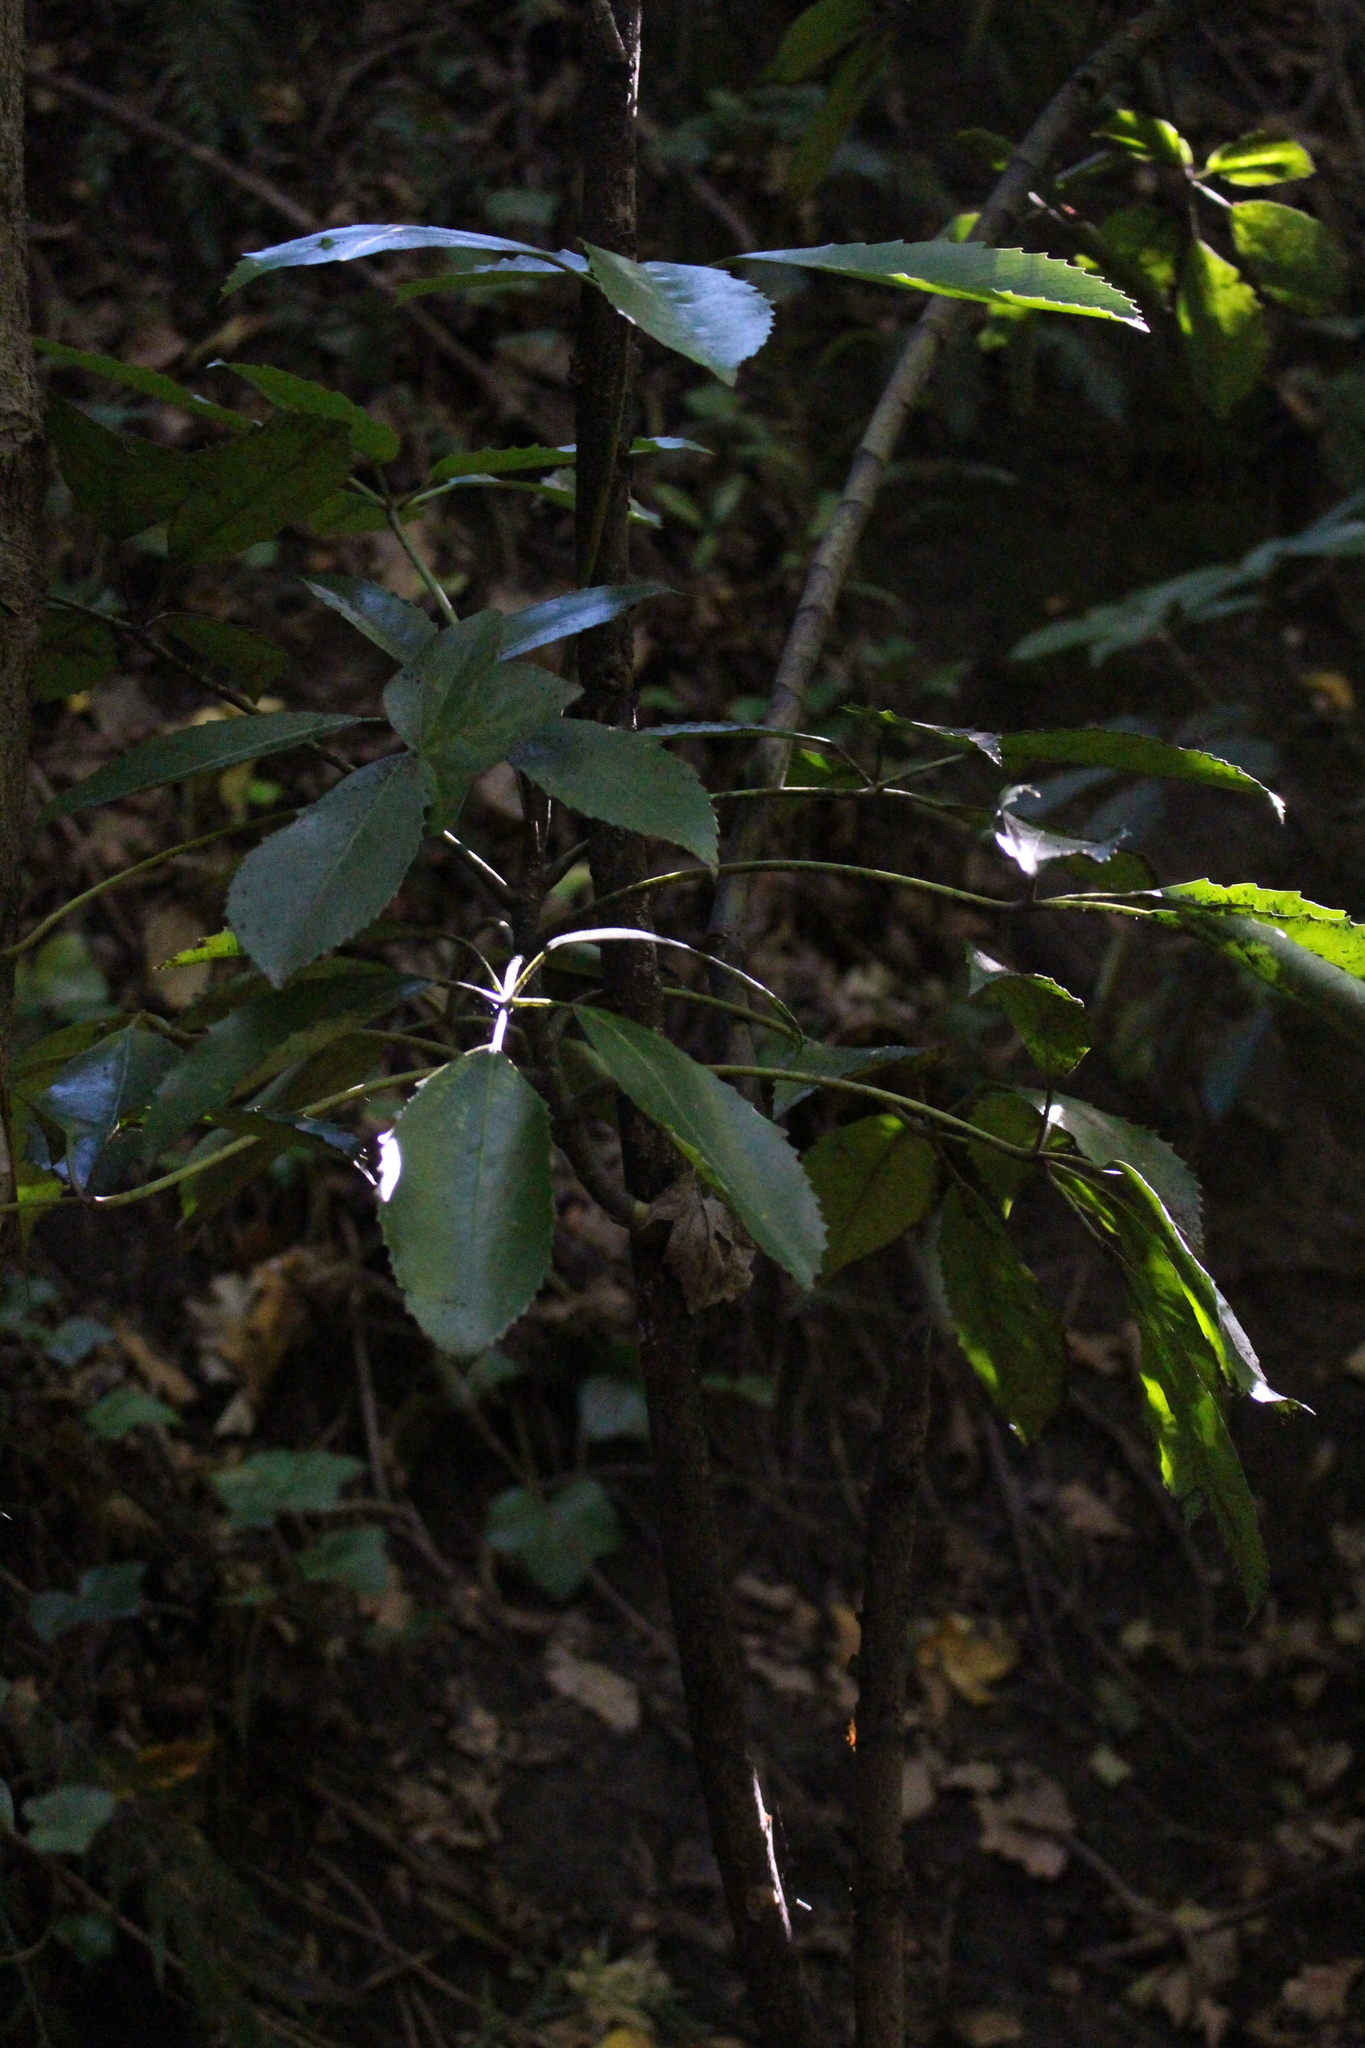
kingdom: Plantae
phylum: Tracheophyta
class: Magnoliopsida
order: Apiales
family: Araliaceae
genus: Neopanax
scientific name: Neopanax arboreus
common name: Five-fingers
